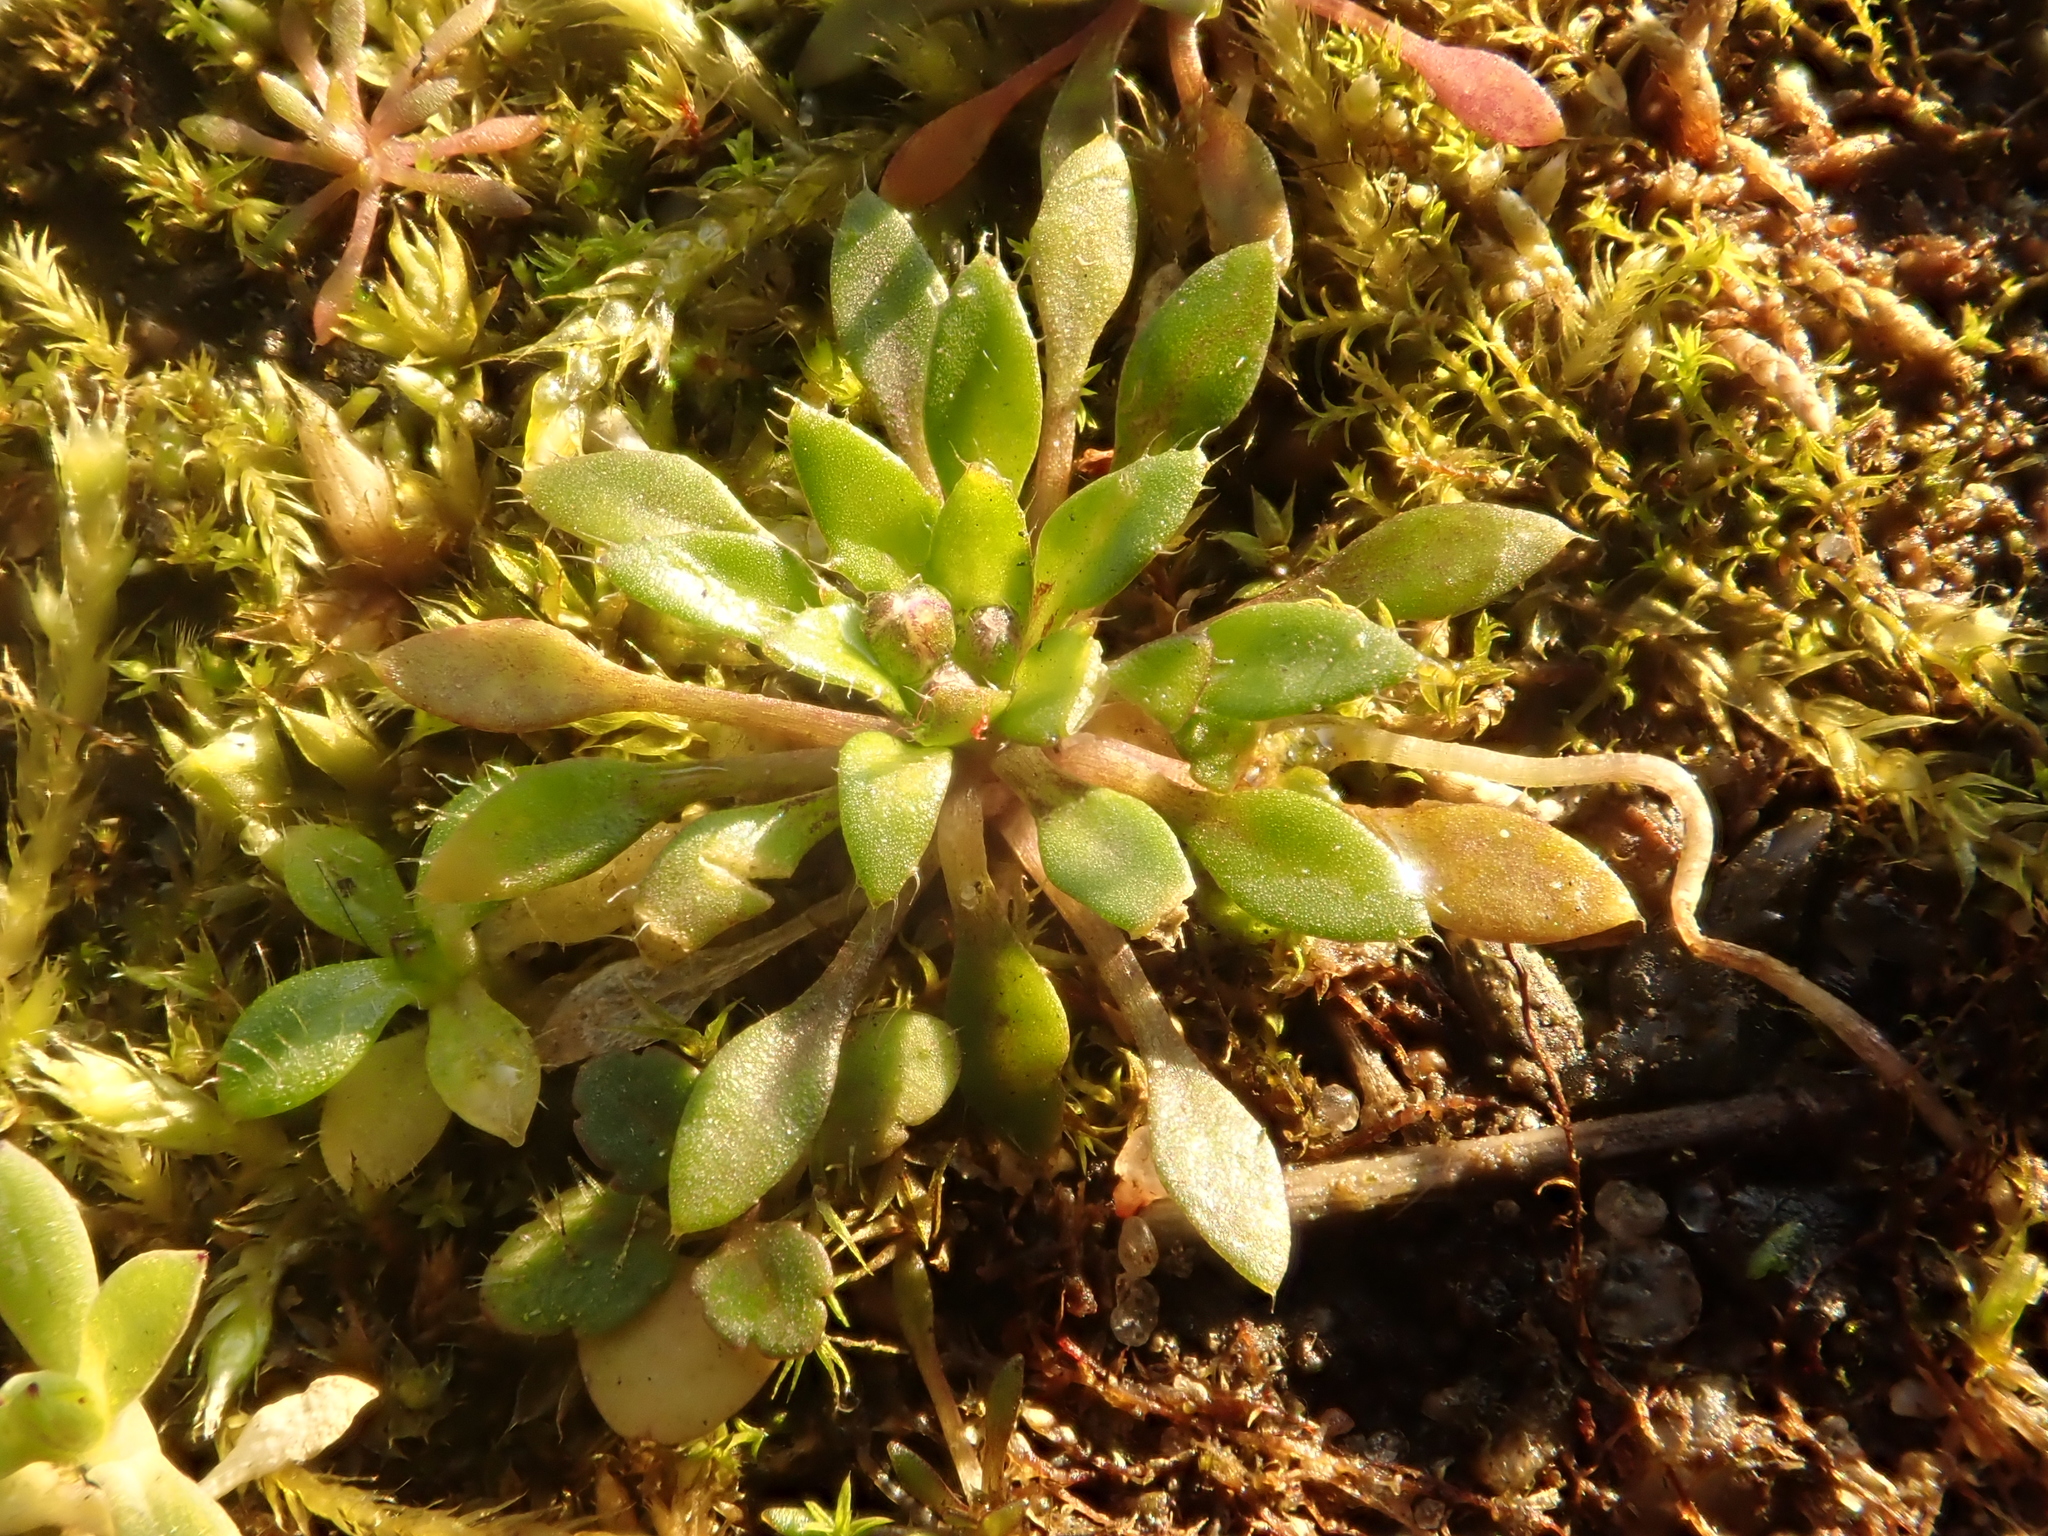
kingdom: Plantae
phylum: Tracheophyta
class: Magnoliopsida
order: Brassicales
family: Brassicaceae
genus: Draba
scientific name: Draba verna
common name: Spring draba
